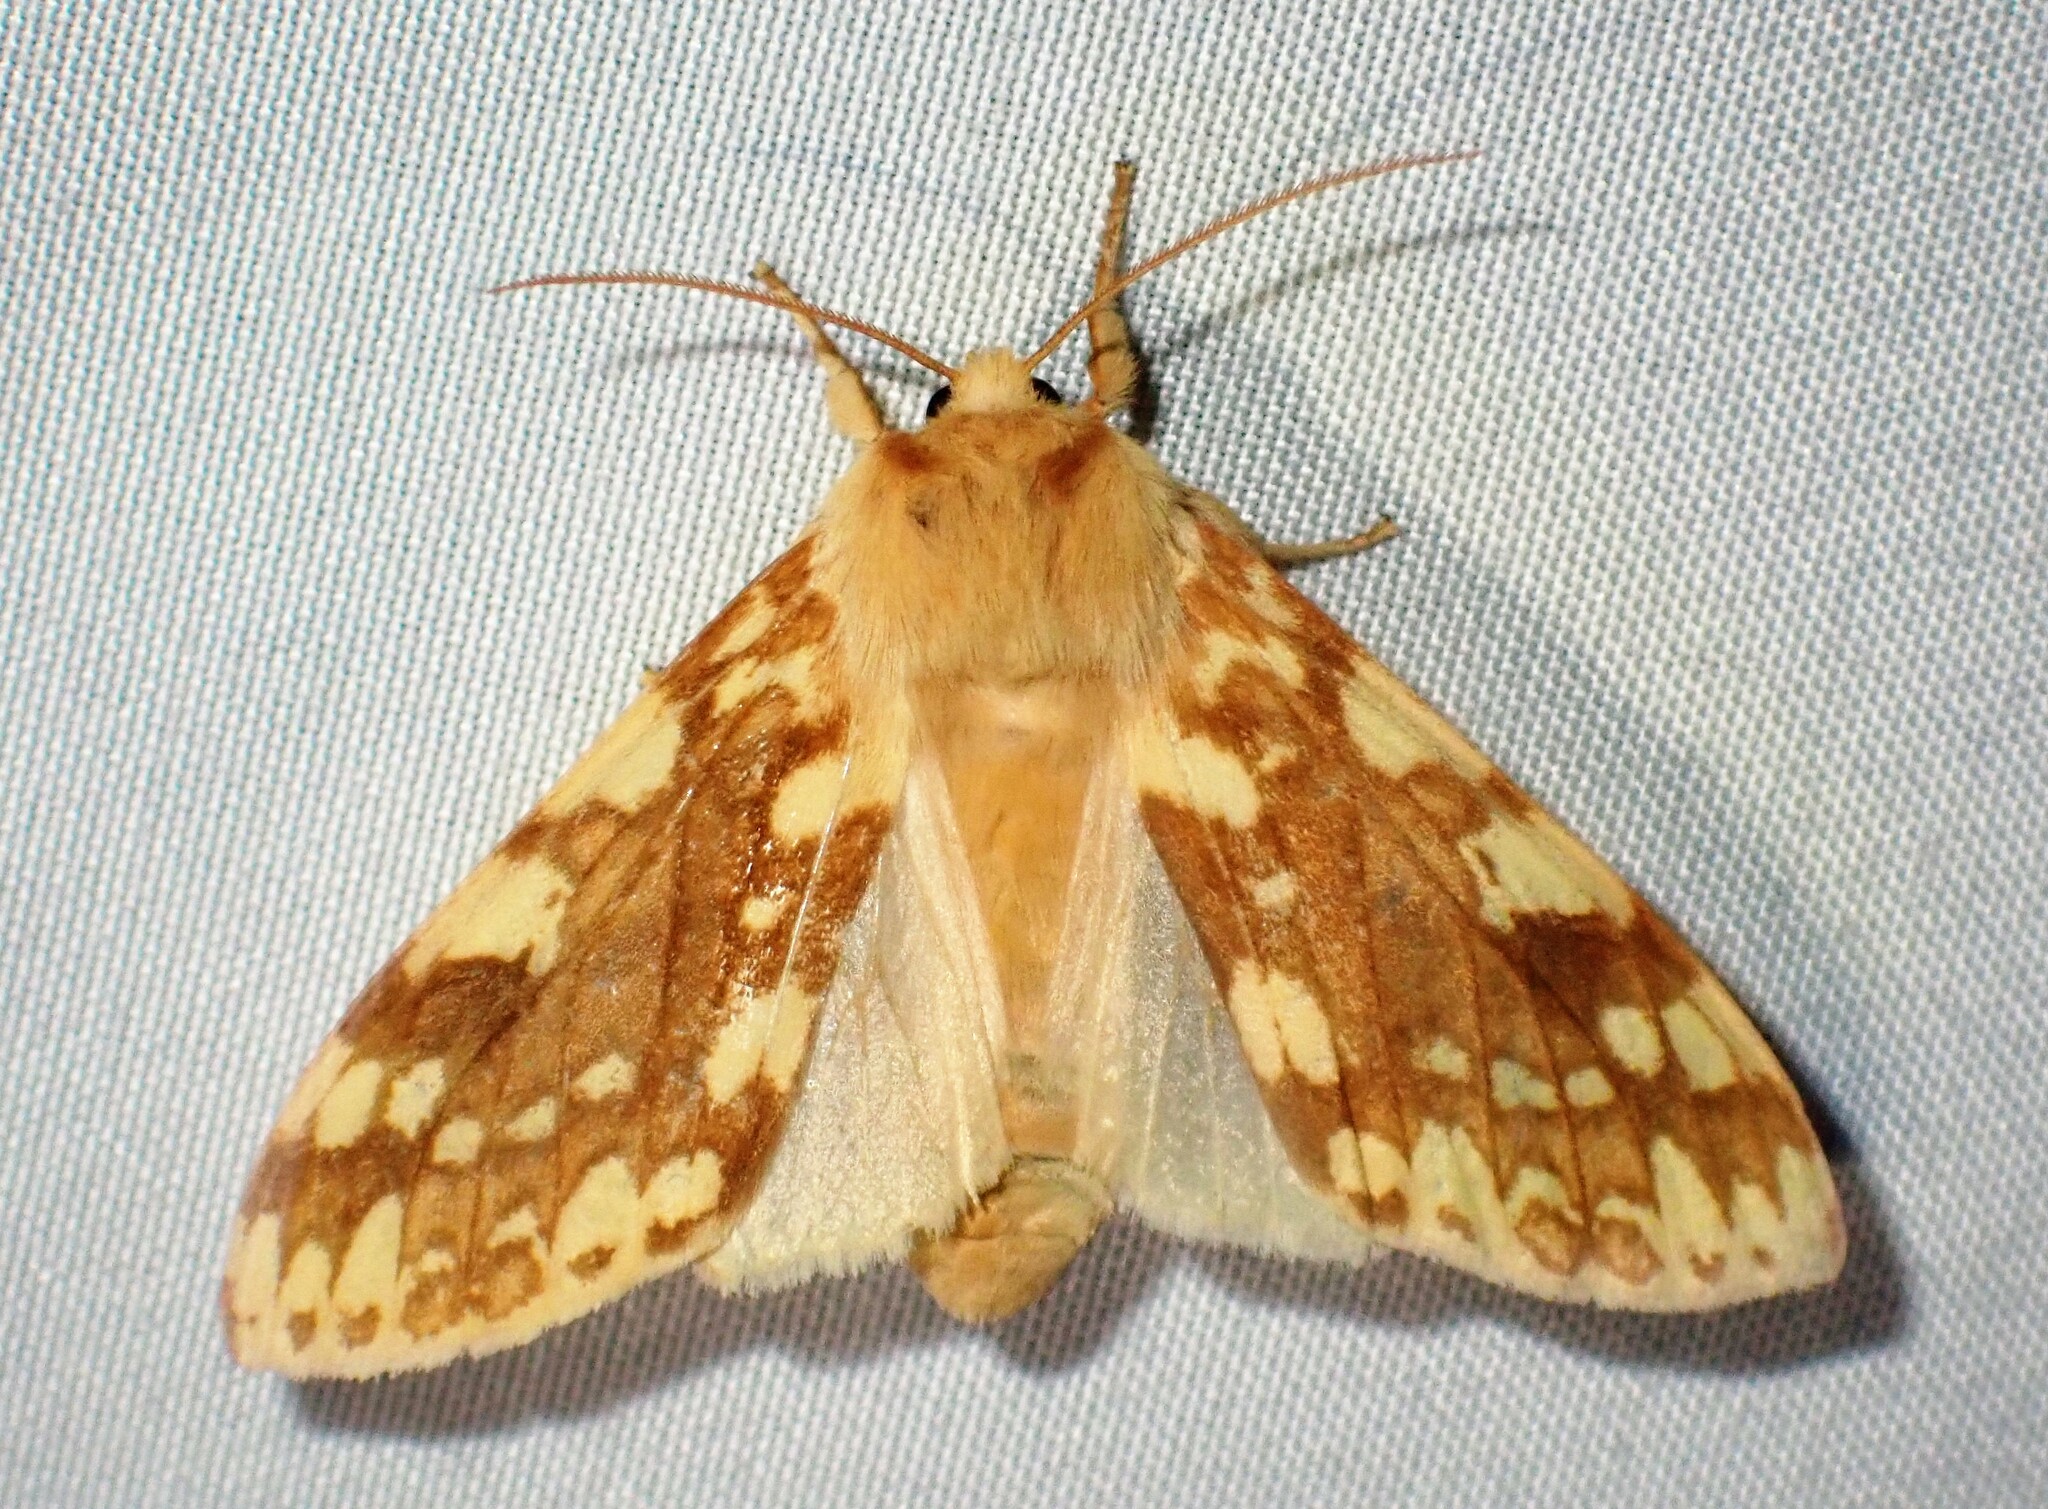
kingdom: Animalia
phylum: Arthropoda
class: Insecta
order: Lepidoptera
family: Erebidae
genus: Lophocampa
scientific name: Lophocampa maculata
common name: Spotted tussock moth
